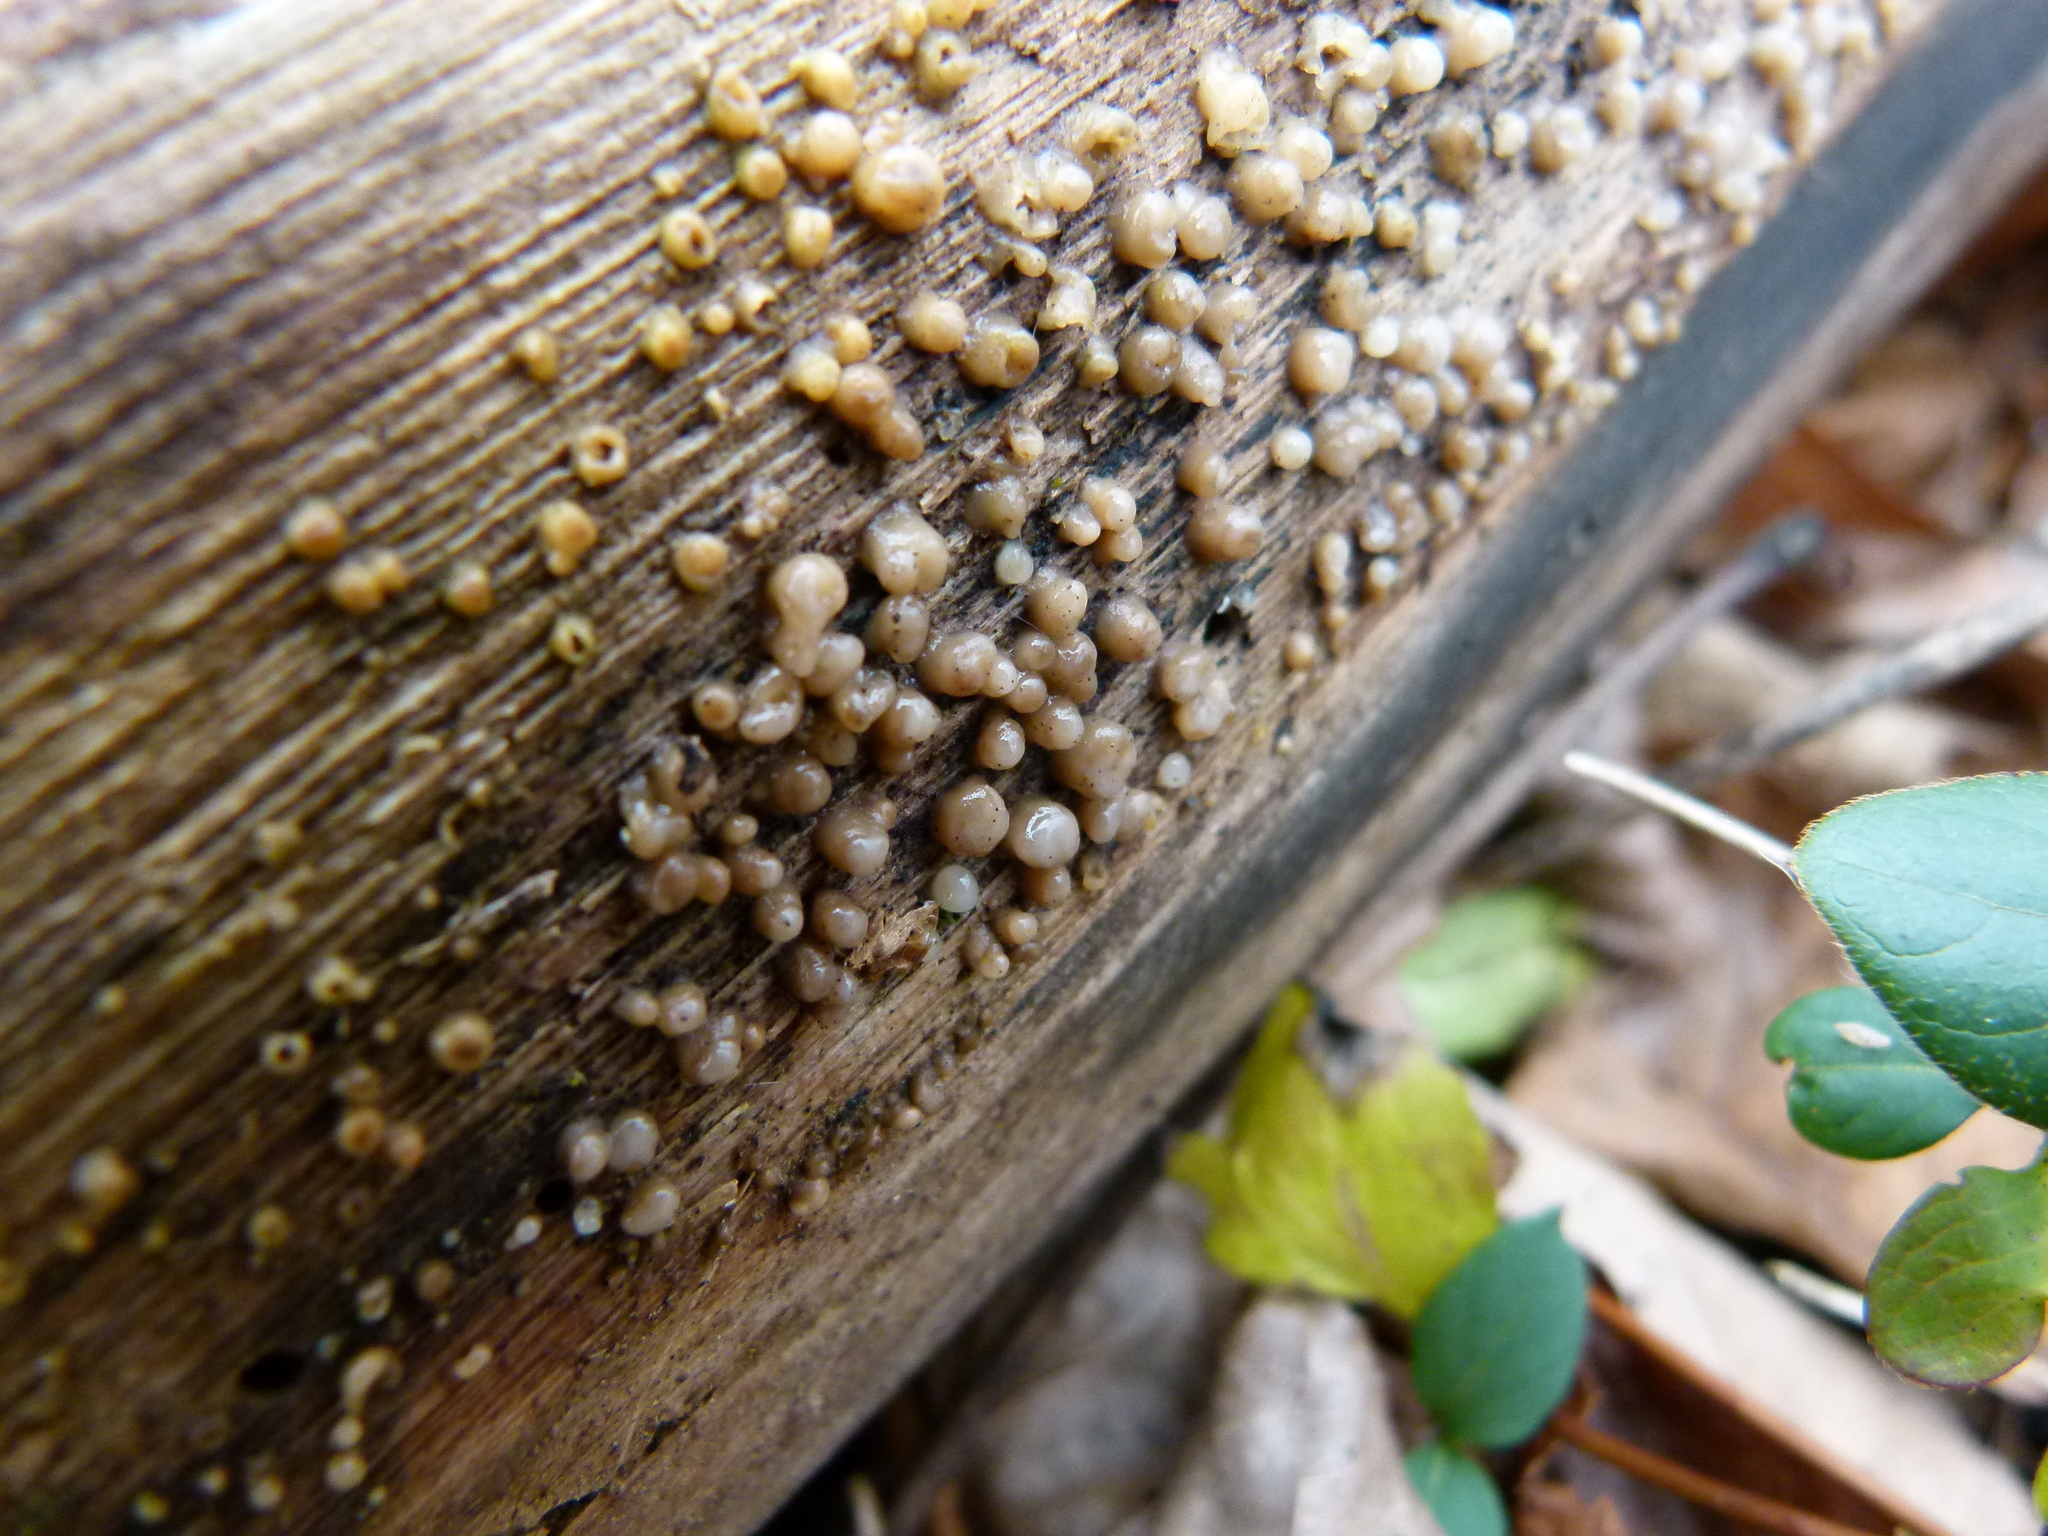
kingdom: Fungi
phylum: Basidiomycota
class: Atractiellomycetes
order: Atractiellales
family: Phleogenaceae
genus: Helicogloea
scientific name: Helicogloea compressa
